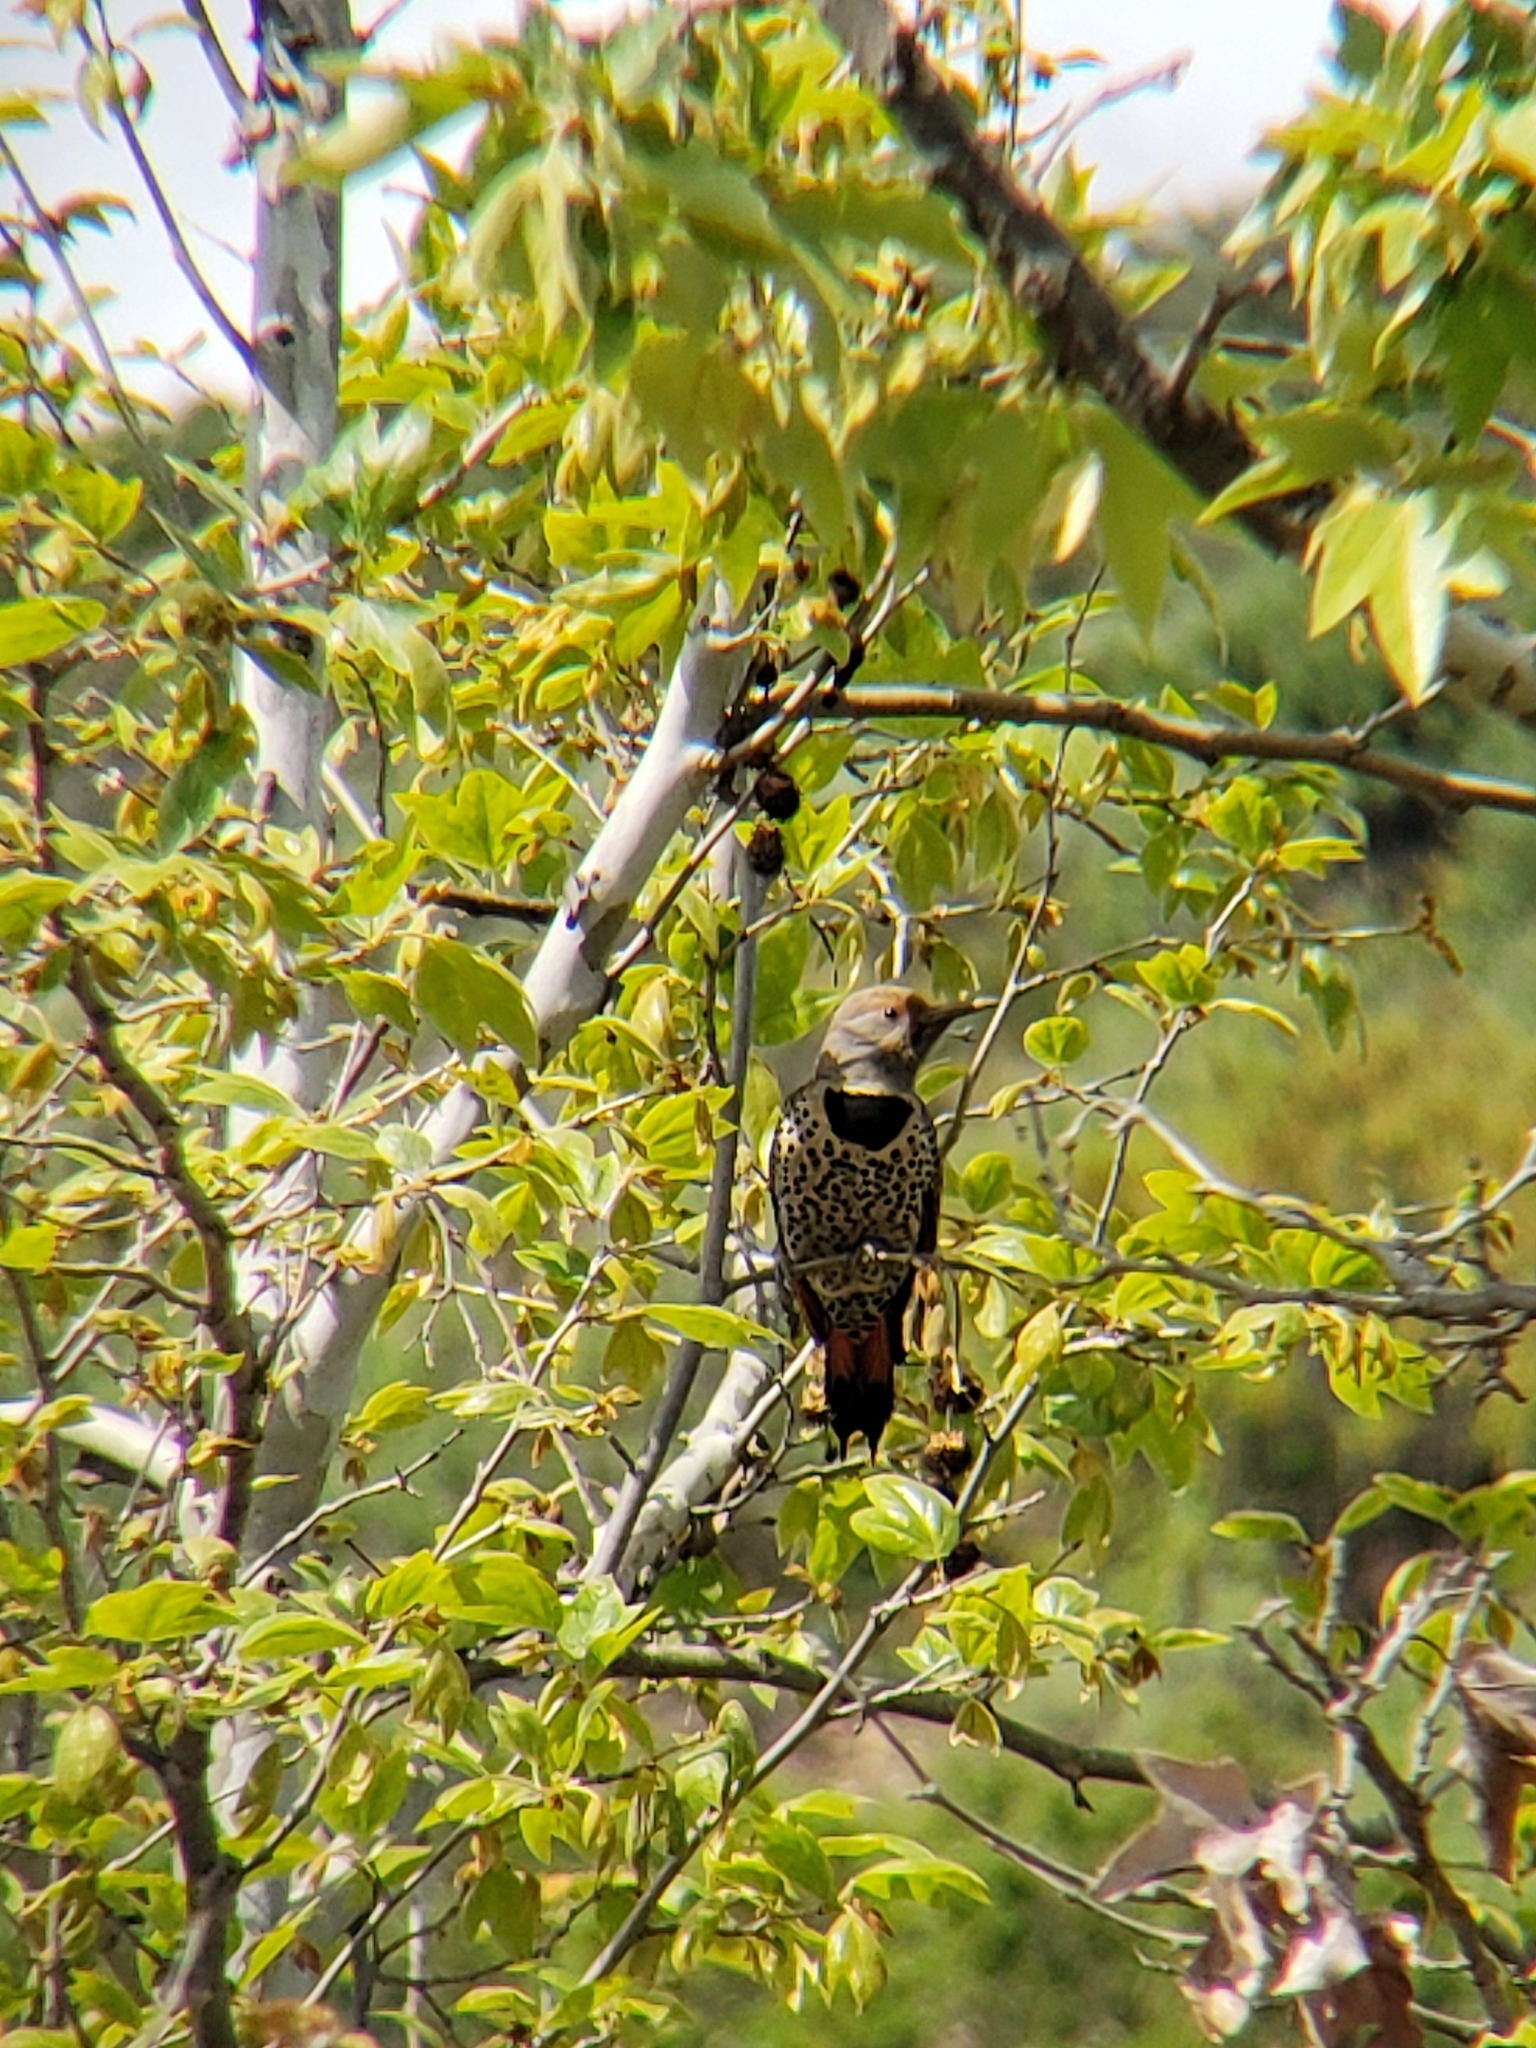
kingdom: Animalia
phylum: Chordata
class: Aves
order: Piciformes
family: Picidae
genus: Colaptes
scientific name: Colaptes auratus
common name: Northern flicker
